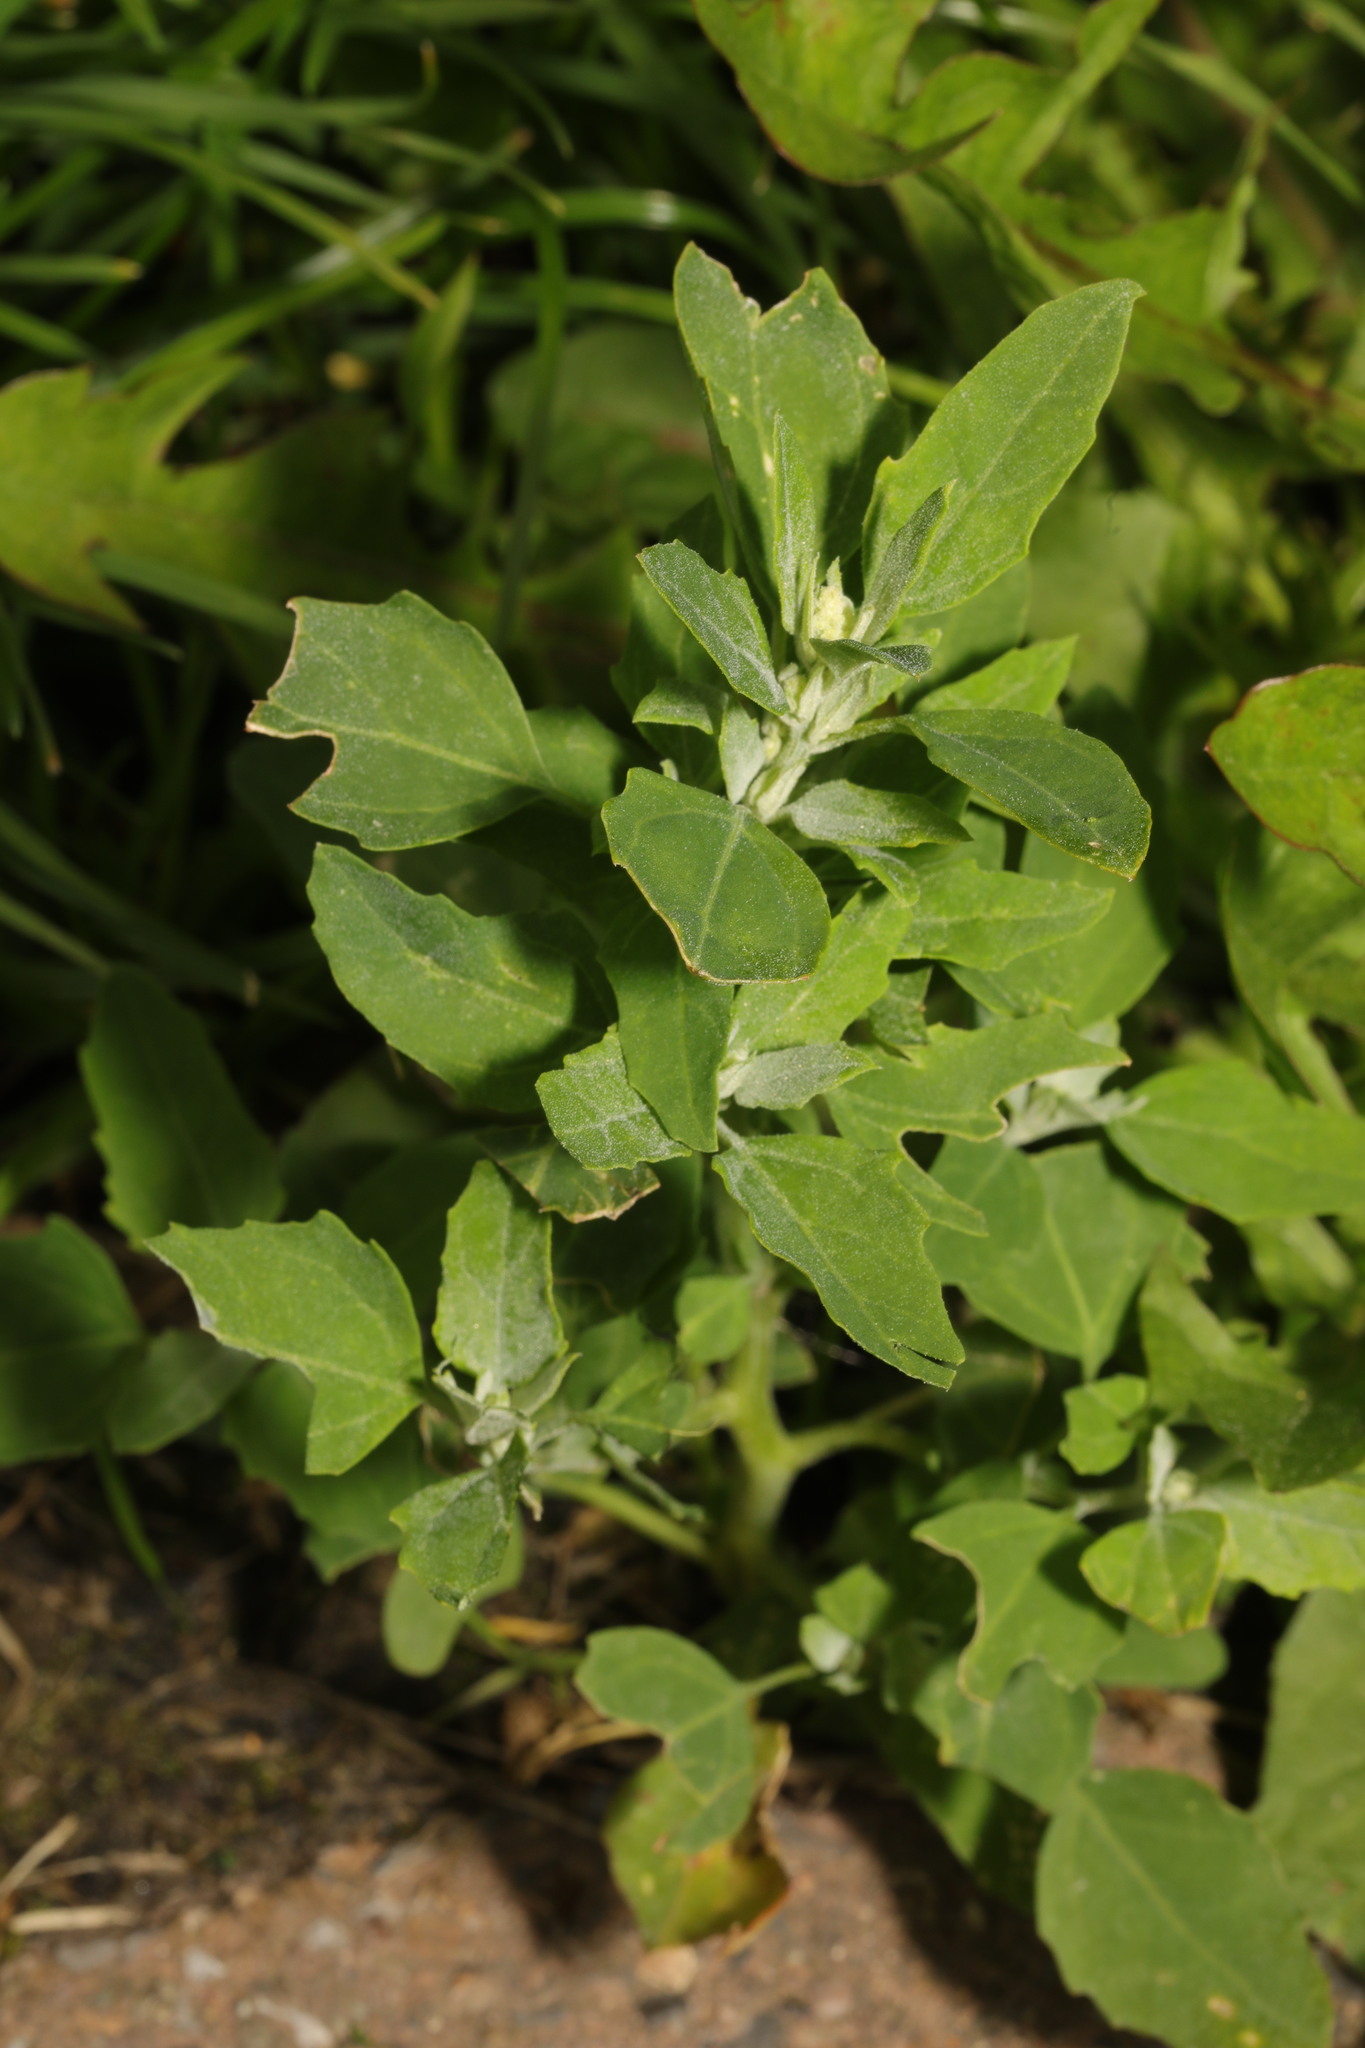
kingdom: Plantae
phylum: Tracheophyta
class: Magnoliopsida
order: Caryophyllales
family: Amaranthaceae
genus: Chenopodium
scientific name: Chenopodium album
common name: Fat-hen
